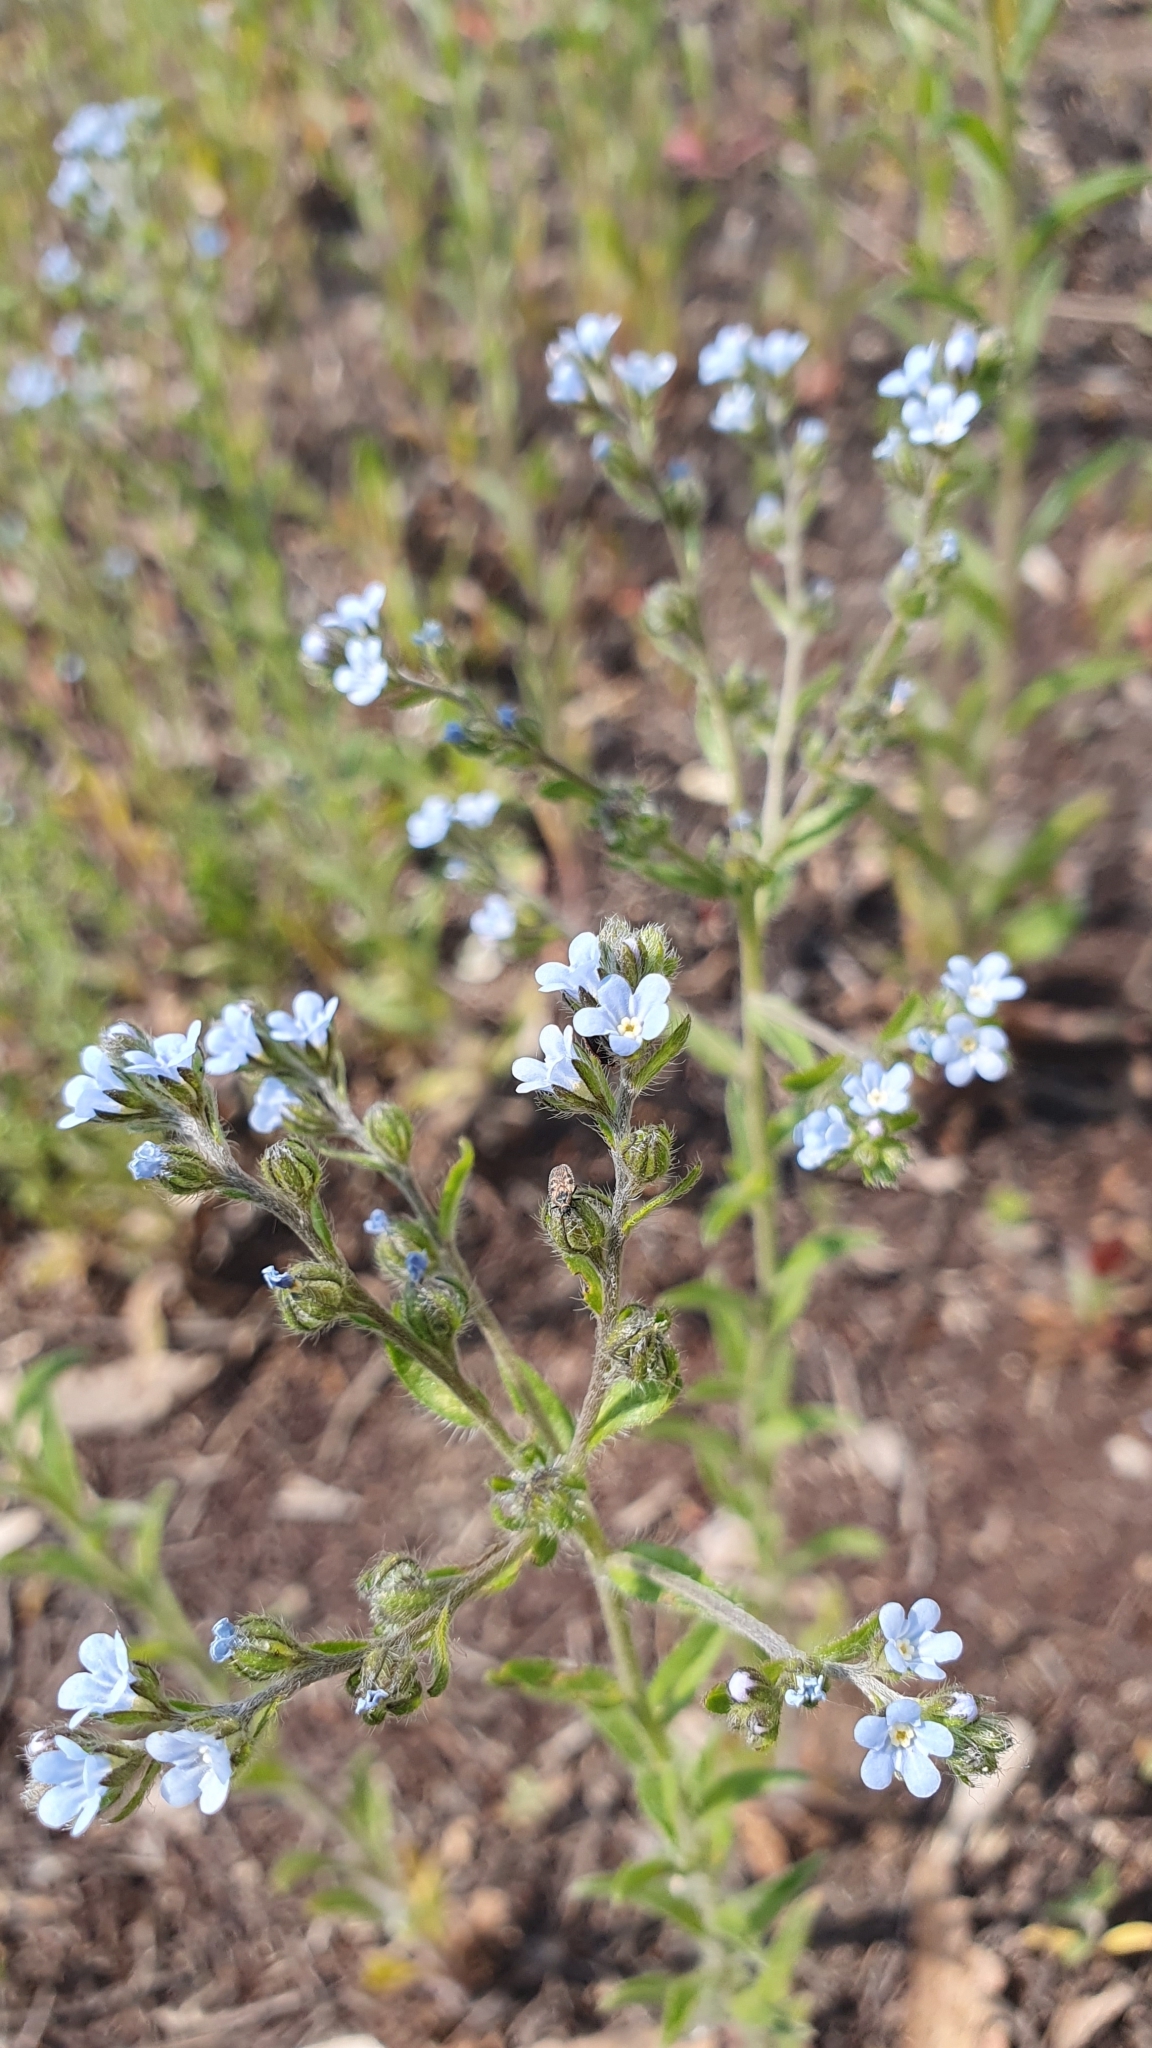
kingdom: Plantae
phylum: Tracheophyta
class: Magnoliopsida
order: Boraginales
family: Boraginaceae
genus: Lappula
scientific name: Lappula squarrosa
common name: European stickseed
